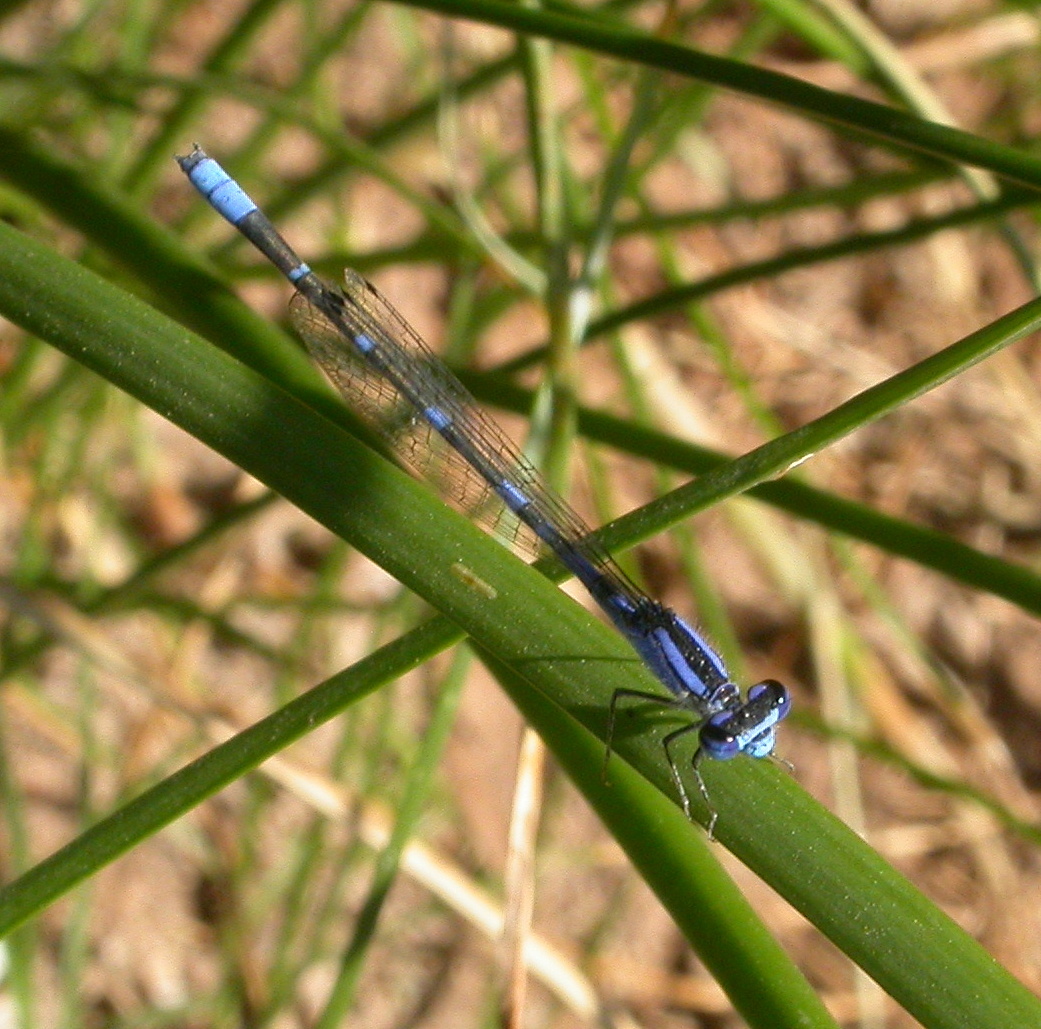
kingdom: Animalia
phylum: Arthropoda
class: Insecta
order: Odonata
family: Coenagrionidae
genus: Enallagma
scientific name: Enallagma praevarum
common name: Arroyo bluet
